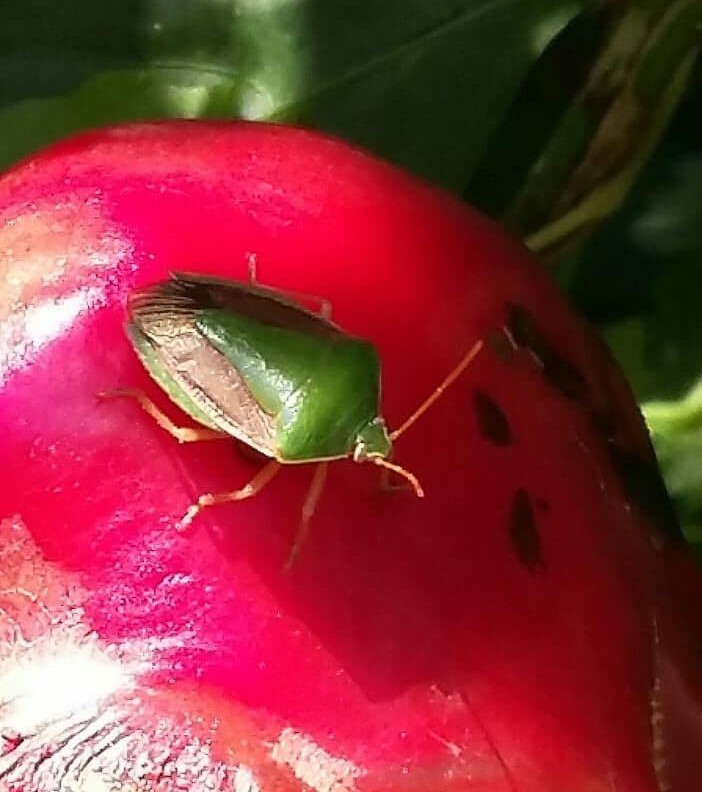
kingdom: Animalia
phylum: Arthropoda
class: Insecta
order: Hemiptera
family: Pentatomidae
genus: Edessa
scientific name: Edessa meditabunda
